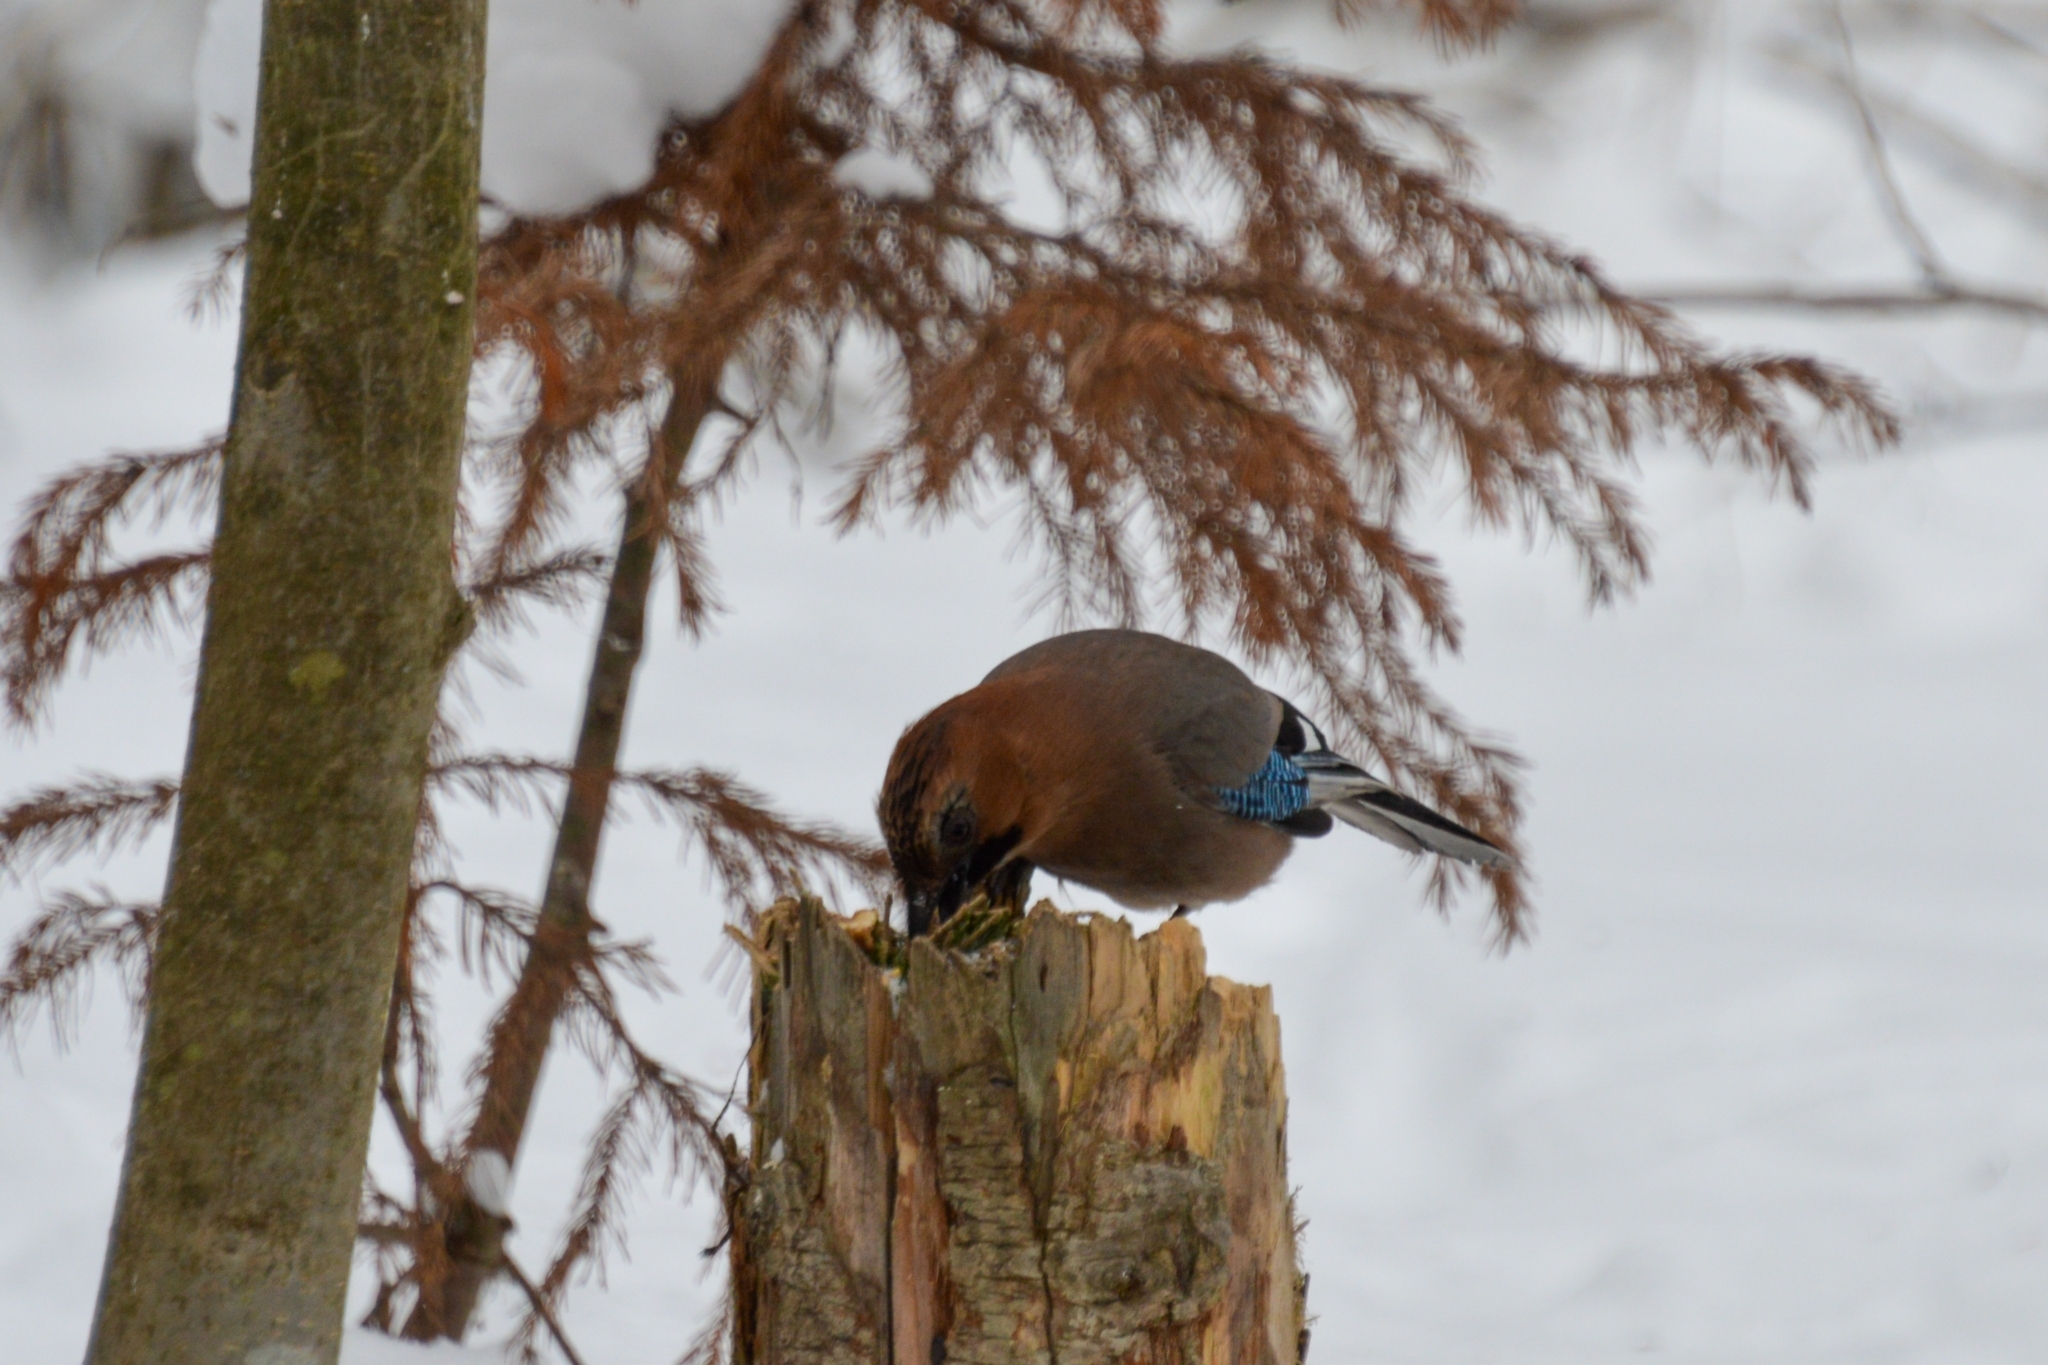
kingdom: Animalia
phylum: Chordata
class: Aves
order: Passeriformes
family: Corvidae
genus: Garrulus
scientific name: Garrulus glandarius
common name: Eurasian jay
